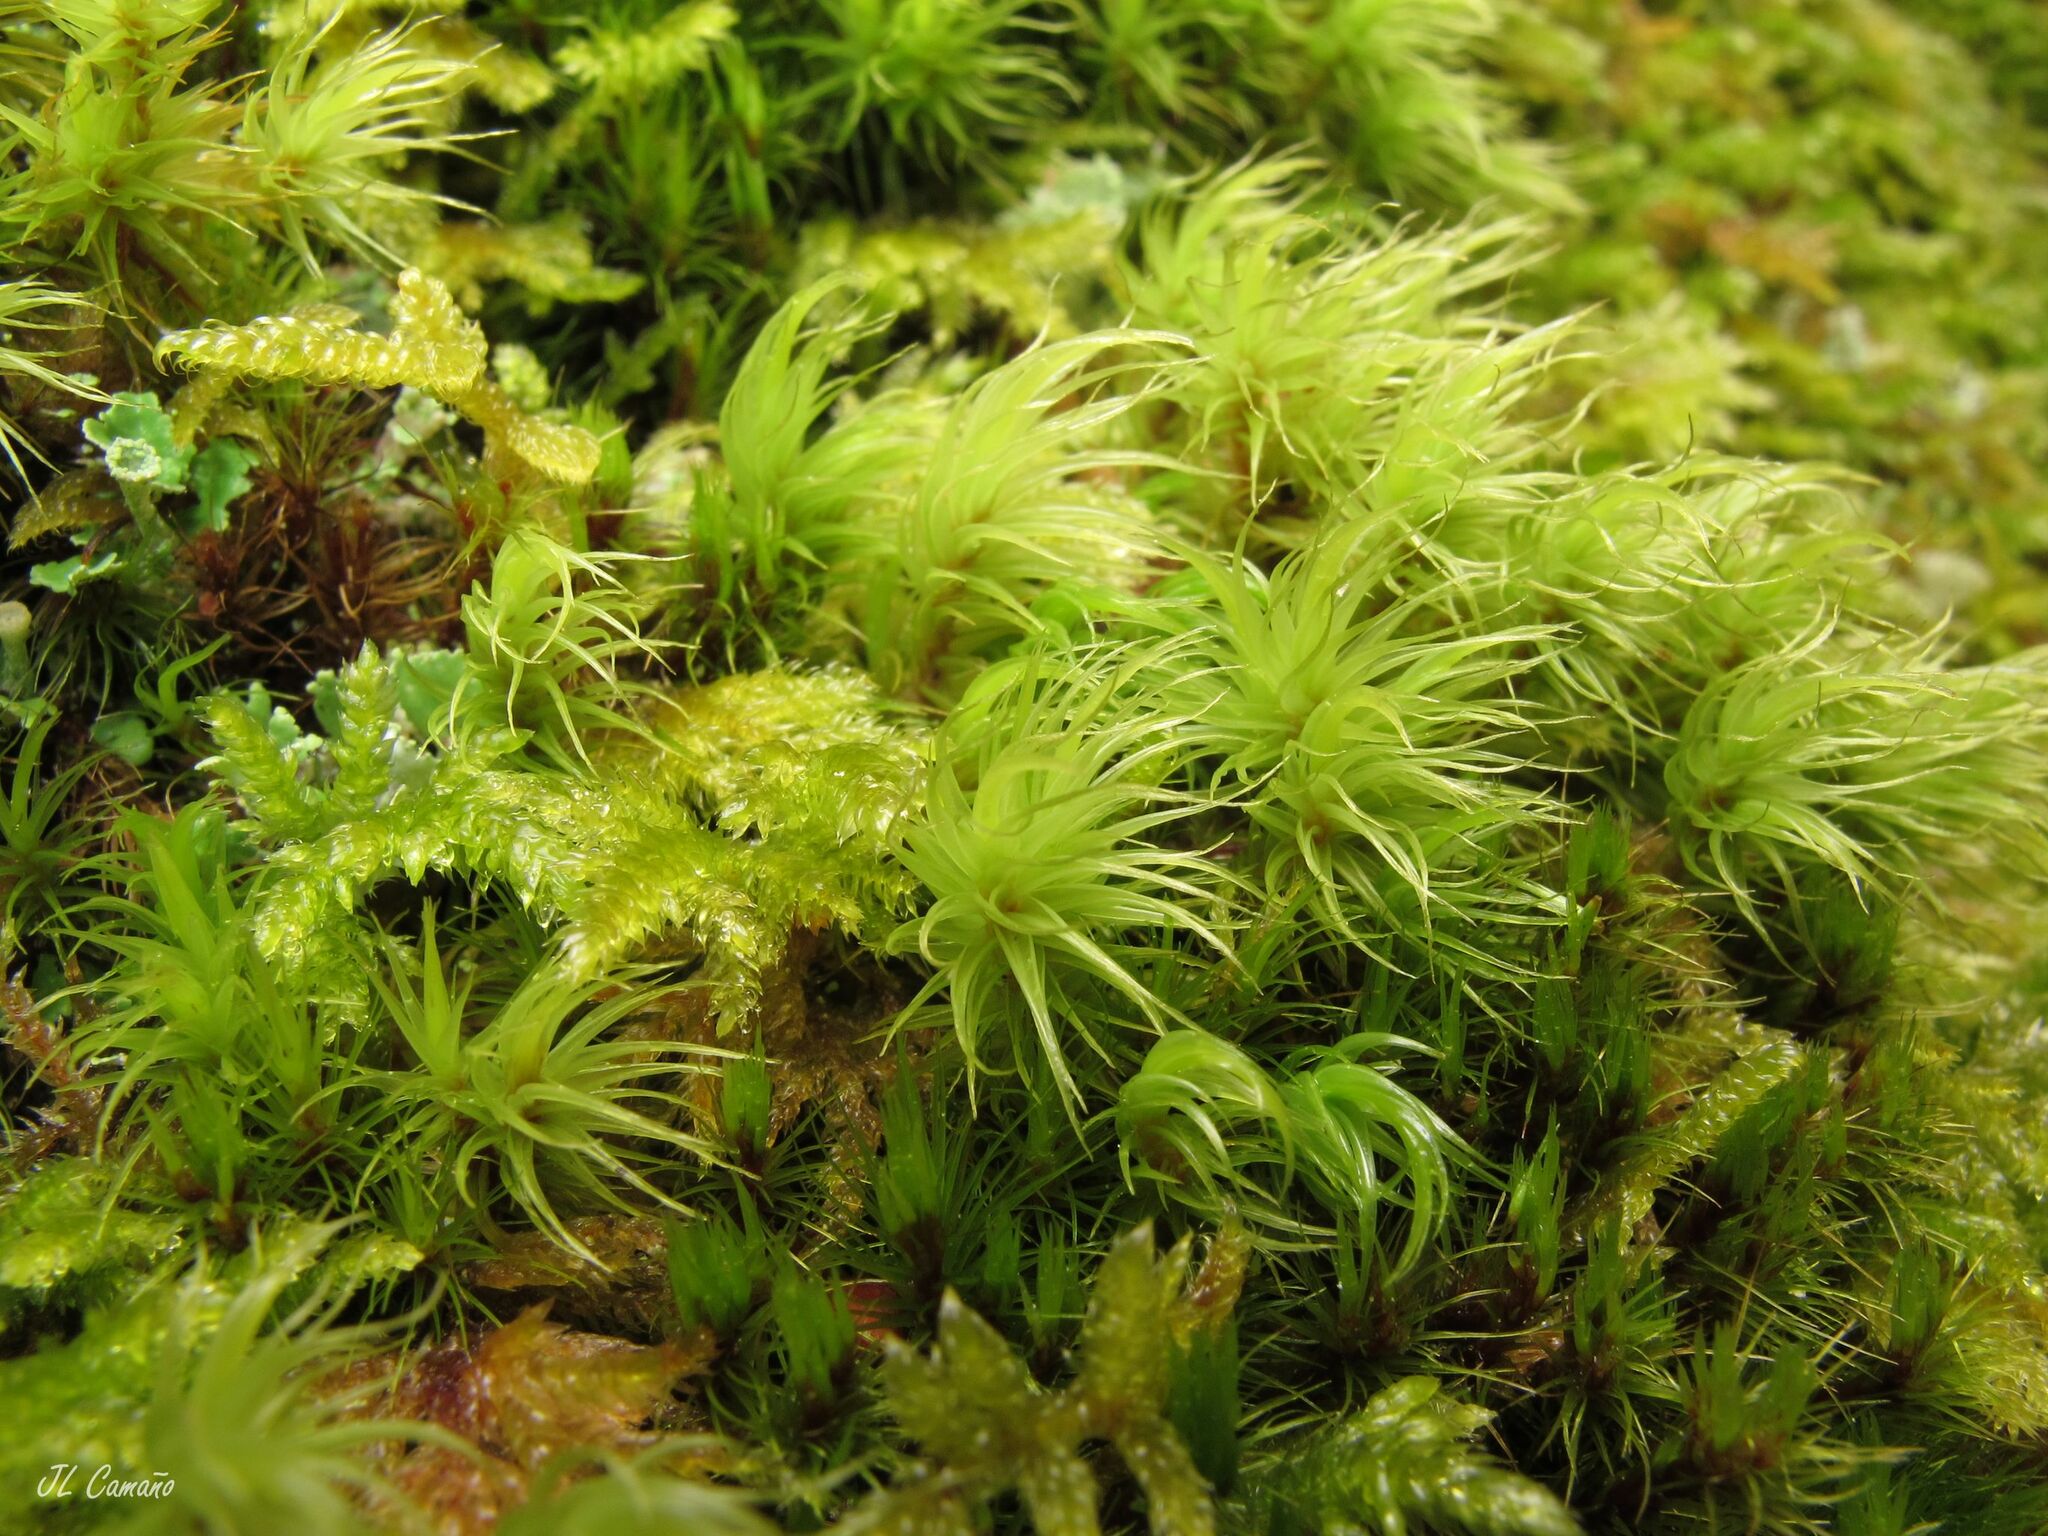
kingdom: Plantae
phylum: Bryophyta
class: Bryopsida
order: Dicranales
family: Dicranaceae
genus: Dicranum
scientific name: Dicranum scoparium
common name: Broom fork-moss
